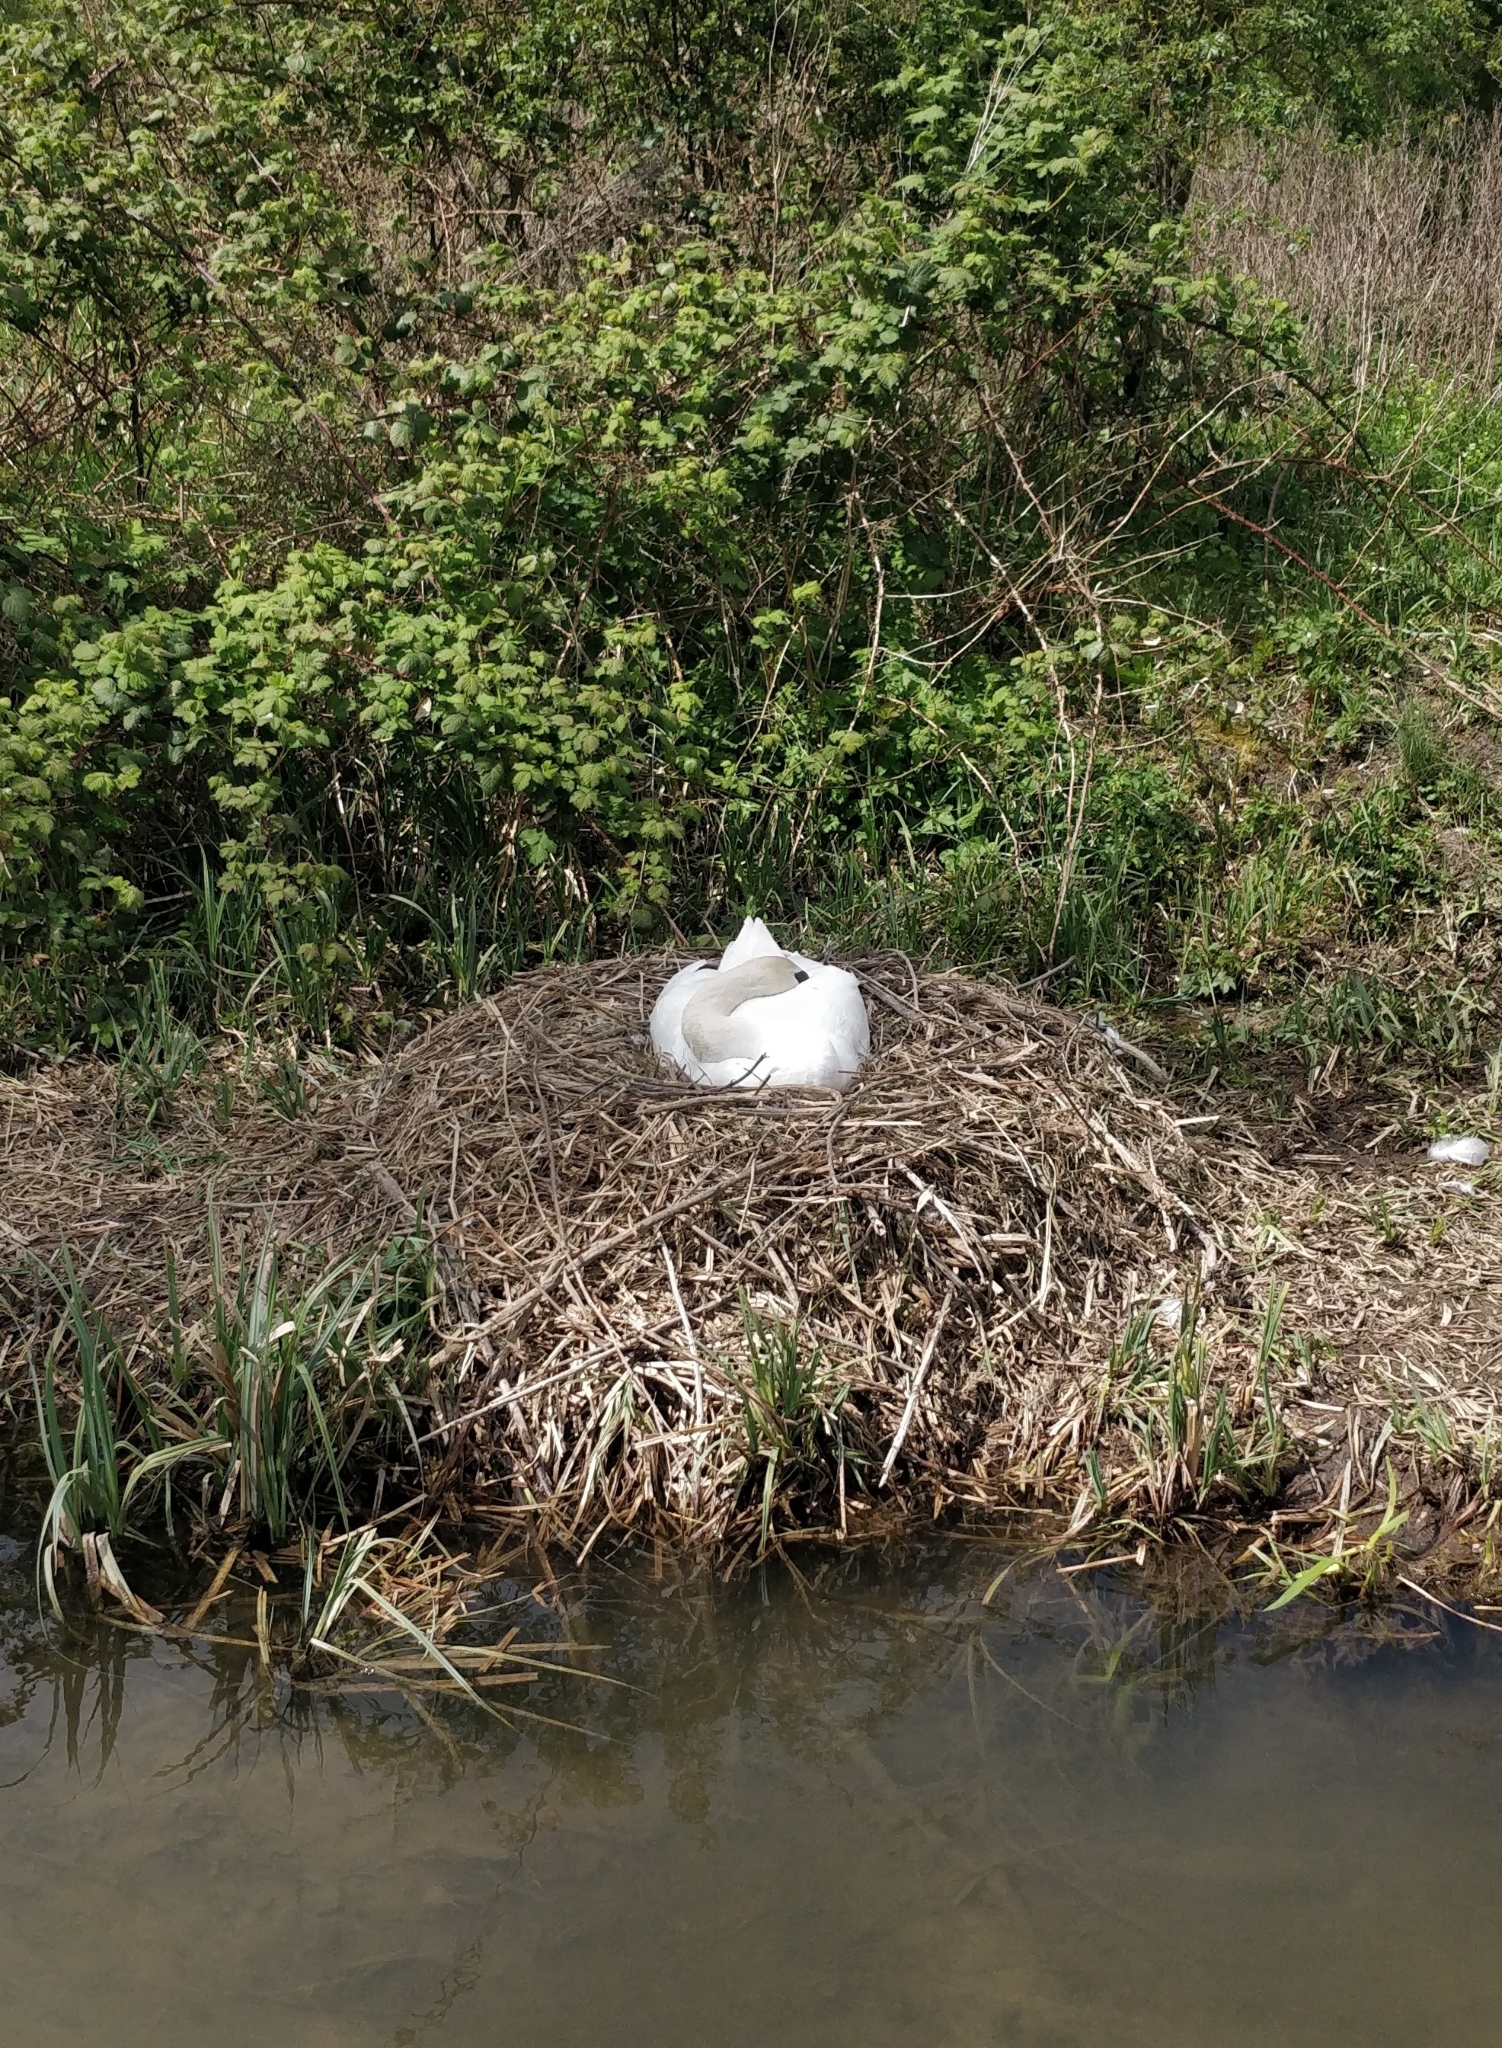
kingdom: Animalia
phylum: Chordata
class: Aves
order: Anseriformes
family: Anatidae
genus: Cygnus
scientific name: Cygnus olor
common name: Mute swan
